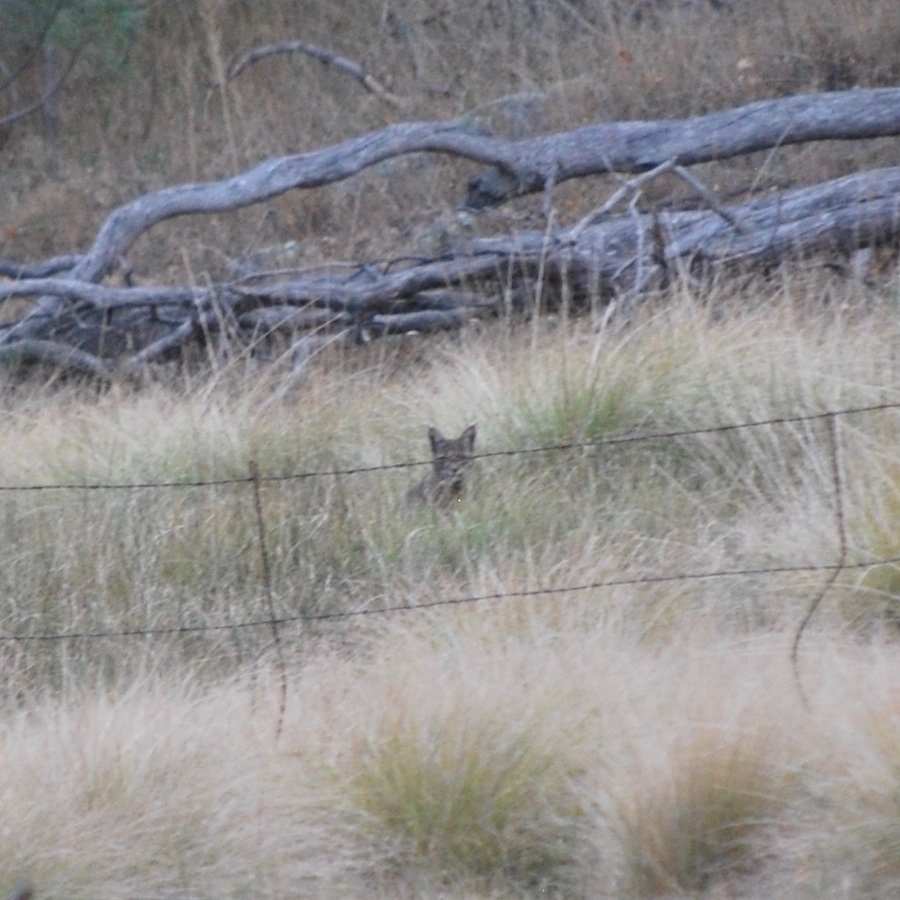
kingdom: Animalia
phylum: Chordata
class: Mammalia
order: Carnivora
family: Felidae
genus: Lynx
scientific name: Lynx rufus
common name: Bobcat
